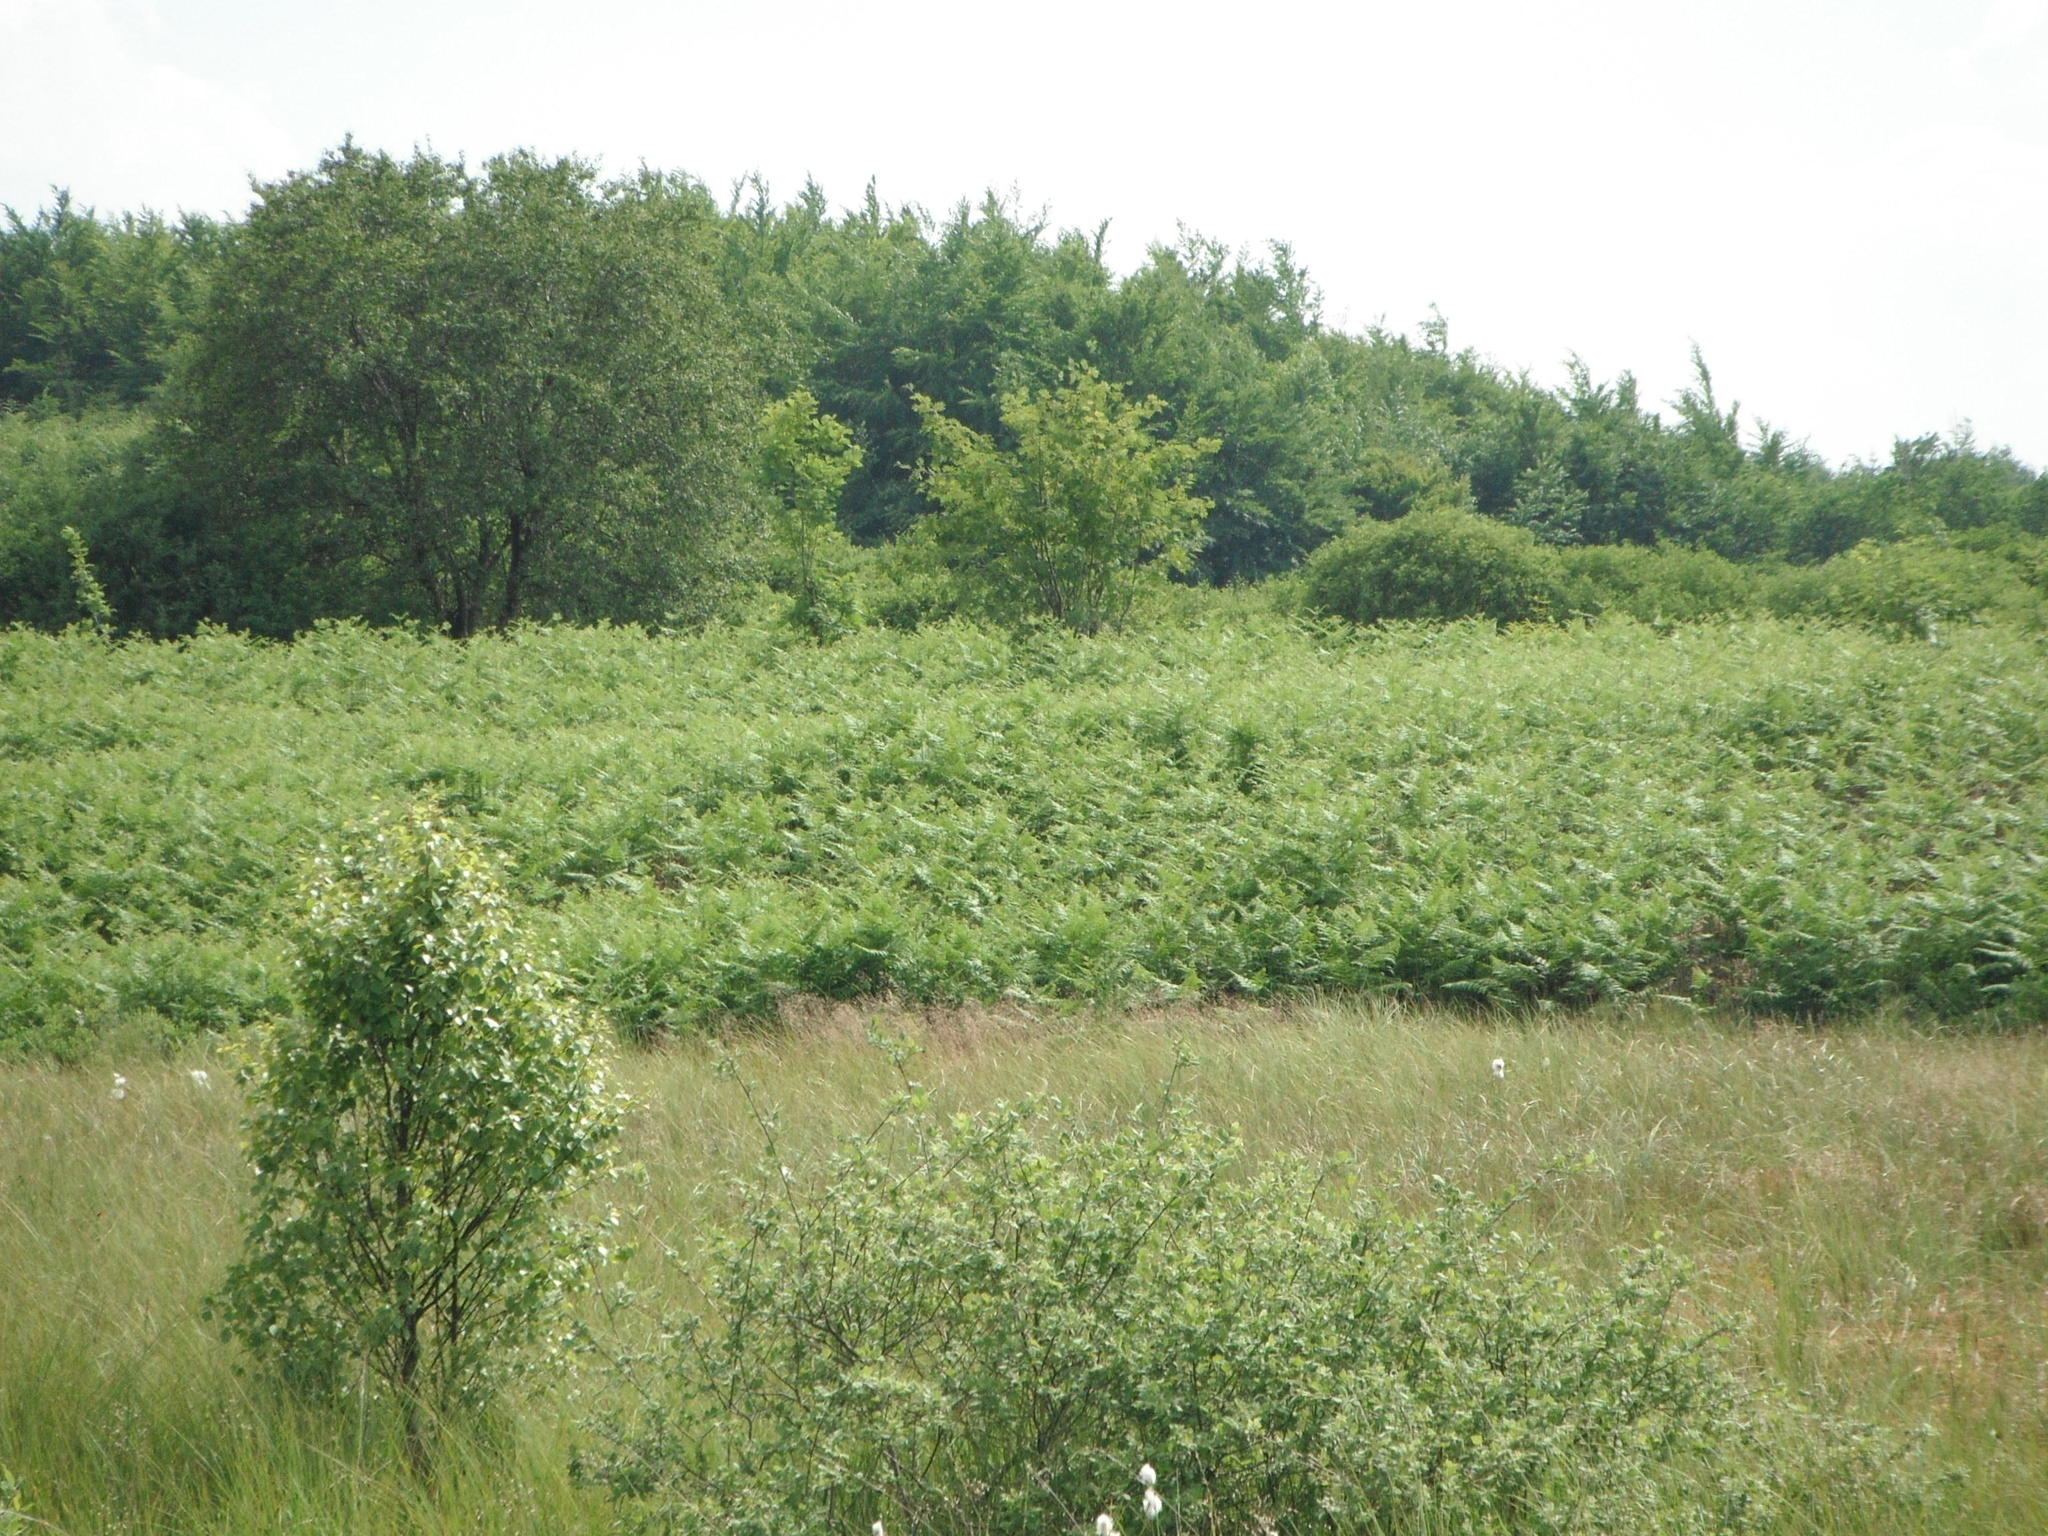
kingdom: Plantae
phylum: Tracheophyta
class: Polypodiopsida
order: Polypodiales
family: Dennstaedtiaceae
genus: Pteridium
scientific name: Pteridium aquilinum
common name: Bracken
